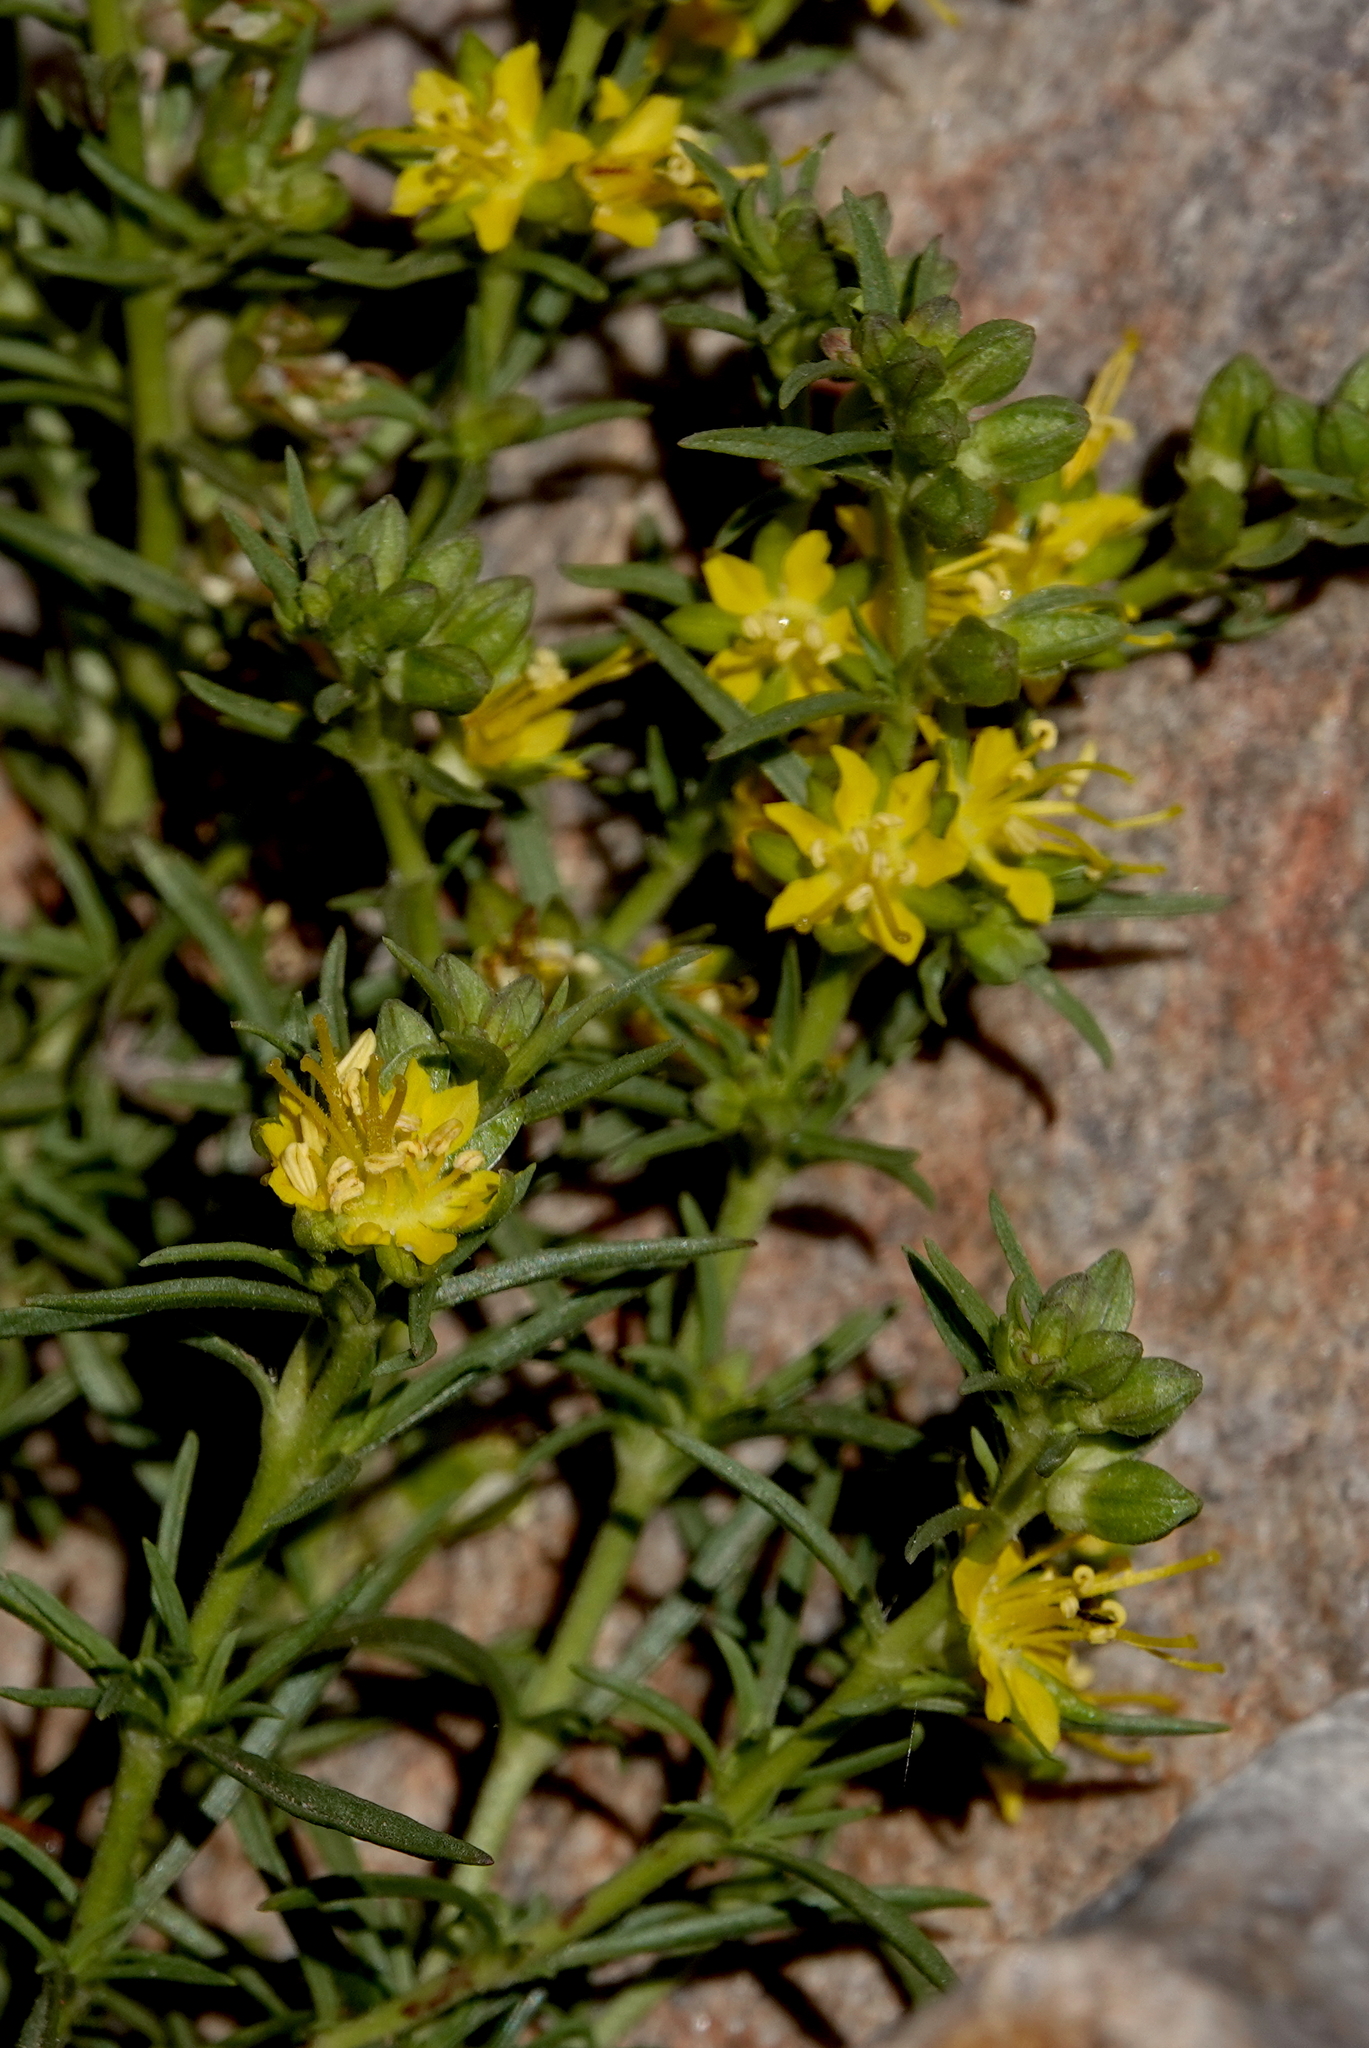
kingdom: Plantae
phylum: Tracheophyta
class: Magnoliopsida
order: Vahliales
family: Vahliaceae
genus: Vahlia
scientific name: Vahlia capensis
